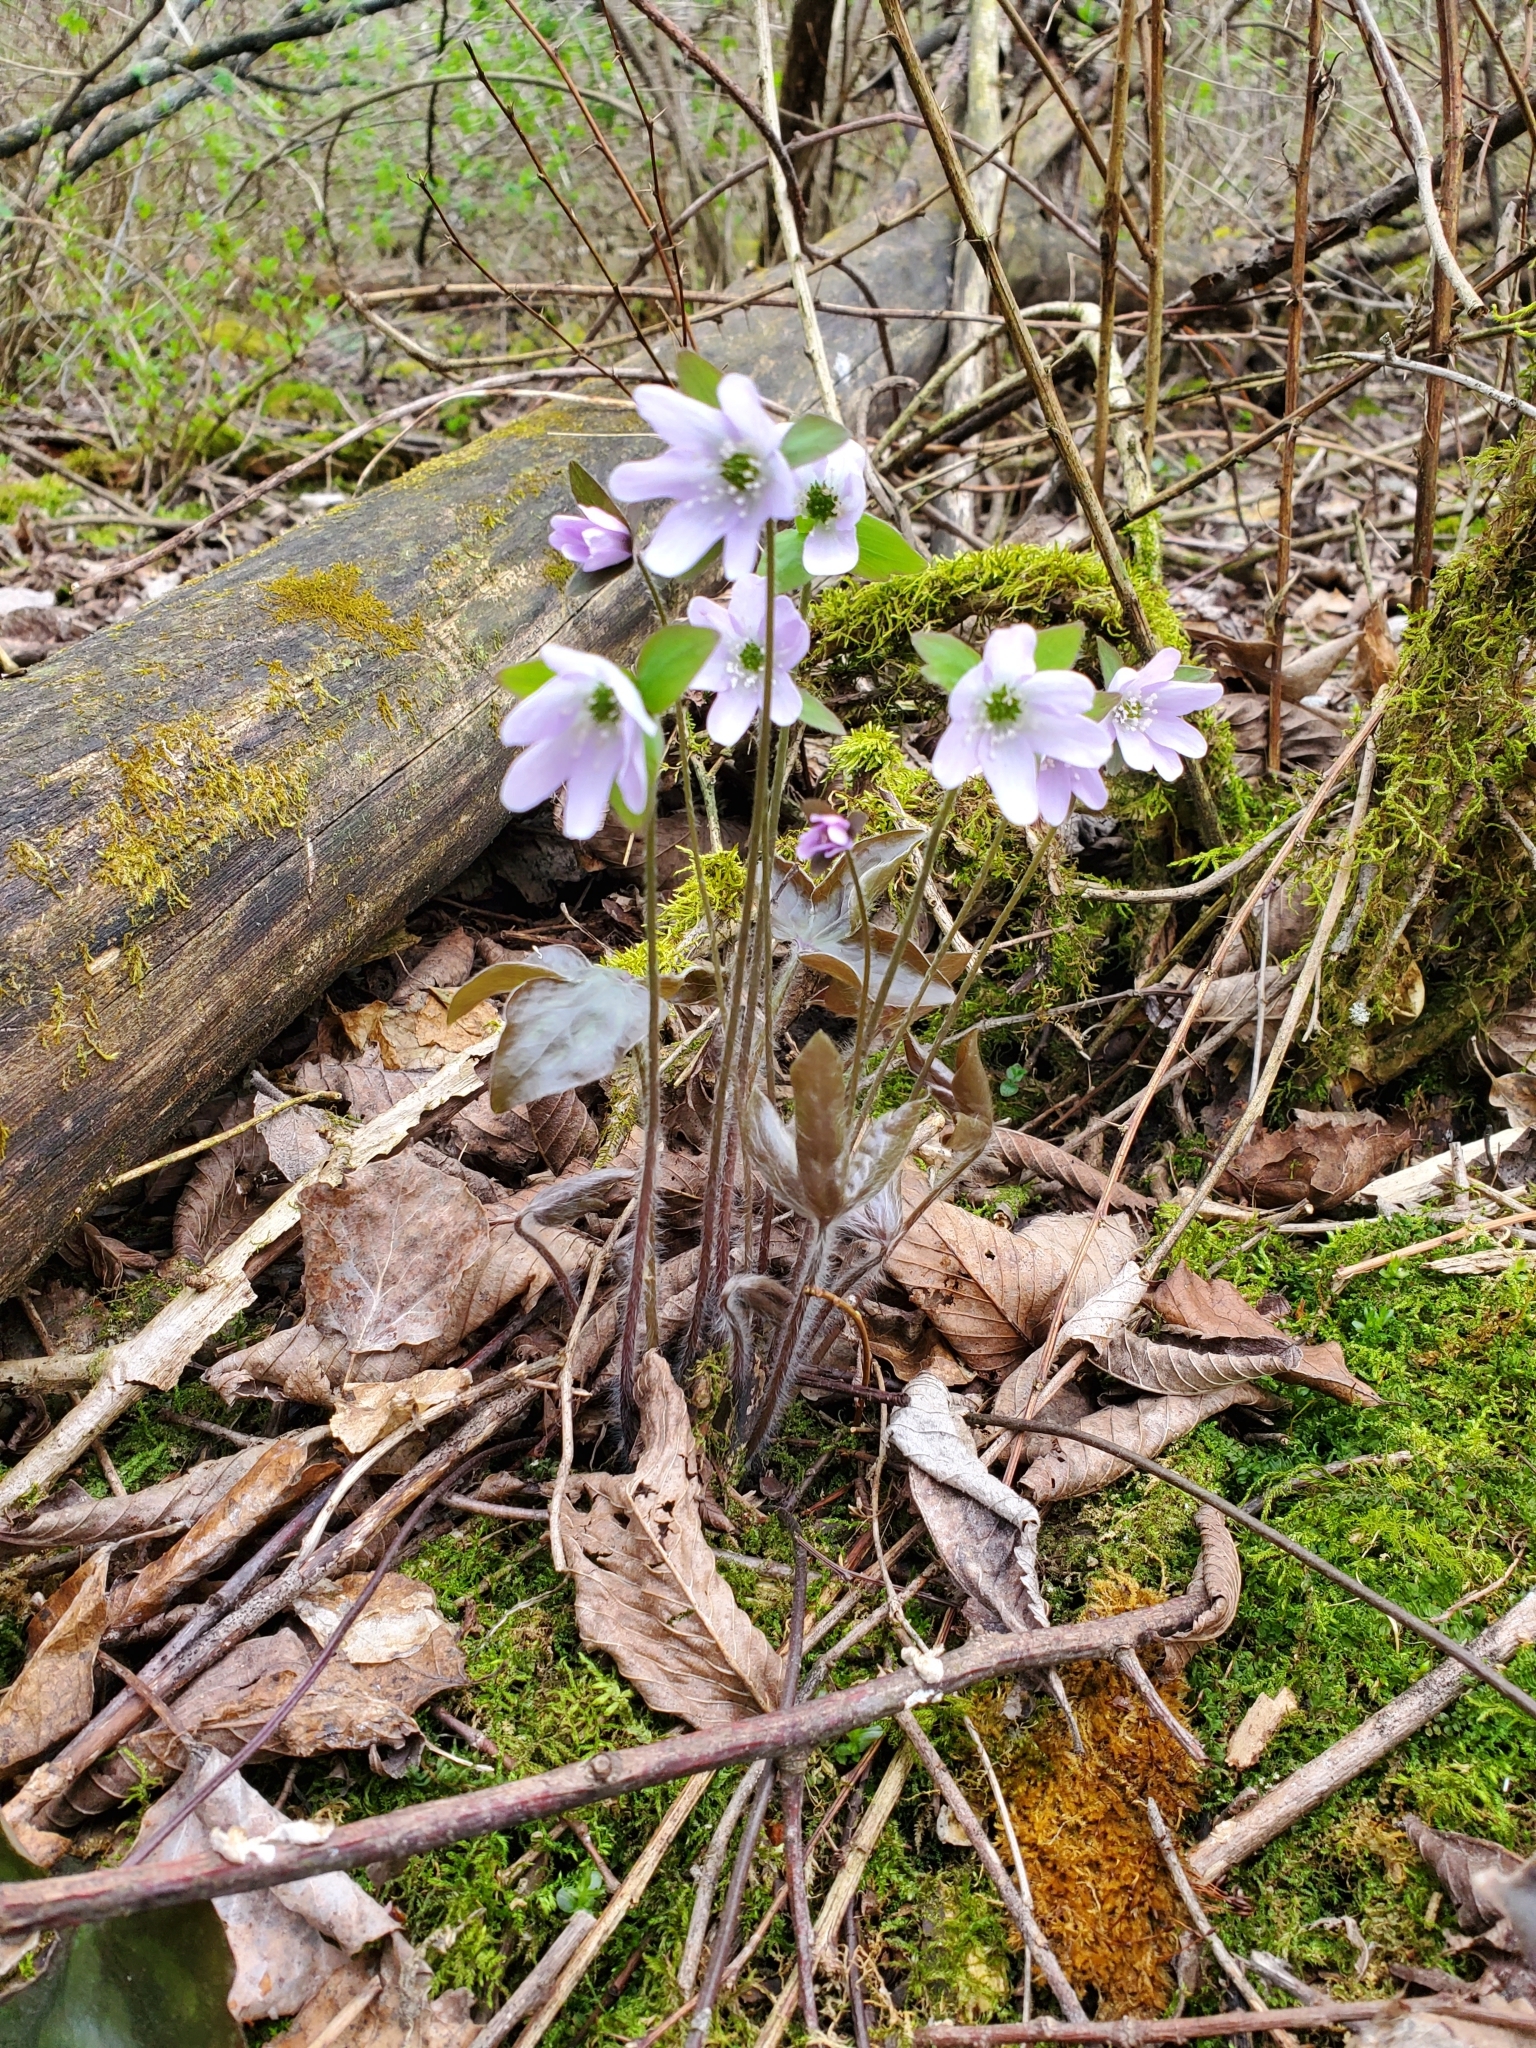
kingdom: Plantae
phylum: Tracheophyta
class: Magnoliopsida
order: Ranunculales
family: Ranunculaceae
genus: Hepatica
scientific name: Hepatica acutiloba
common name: Sharp-lobed hepatica
